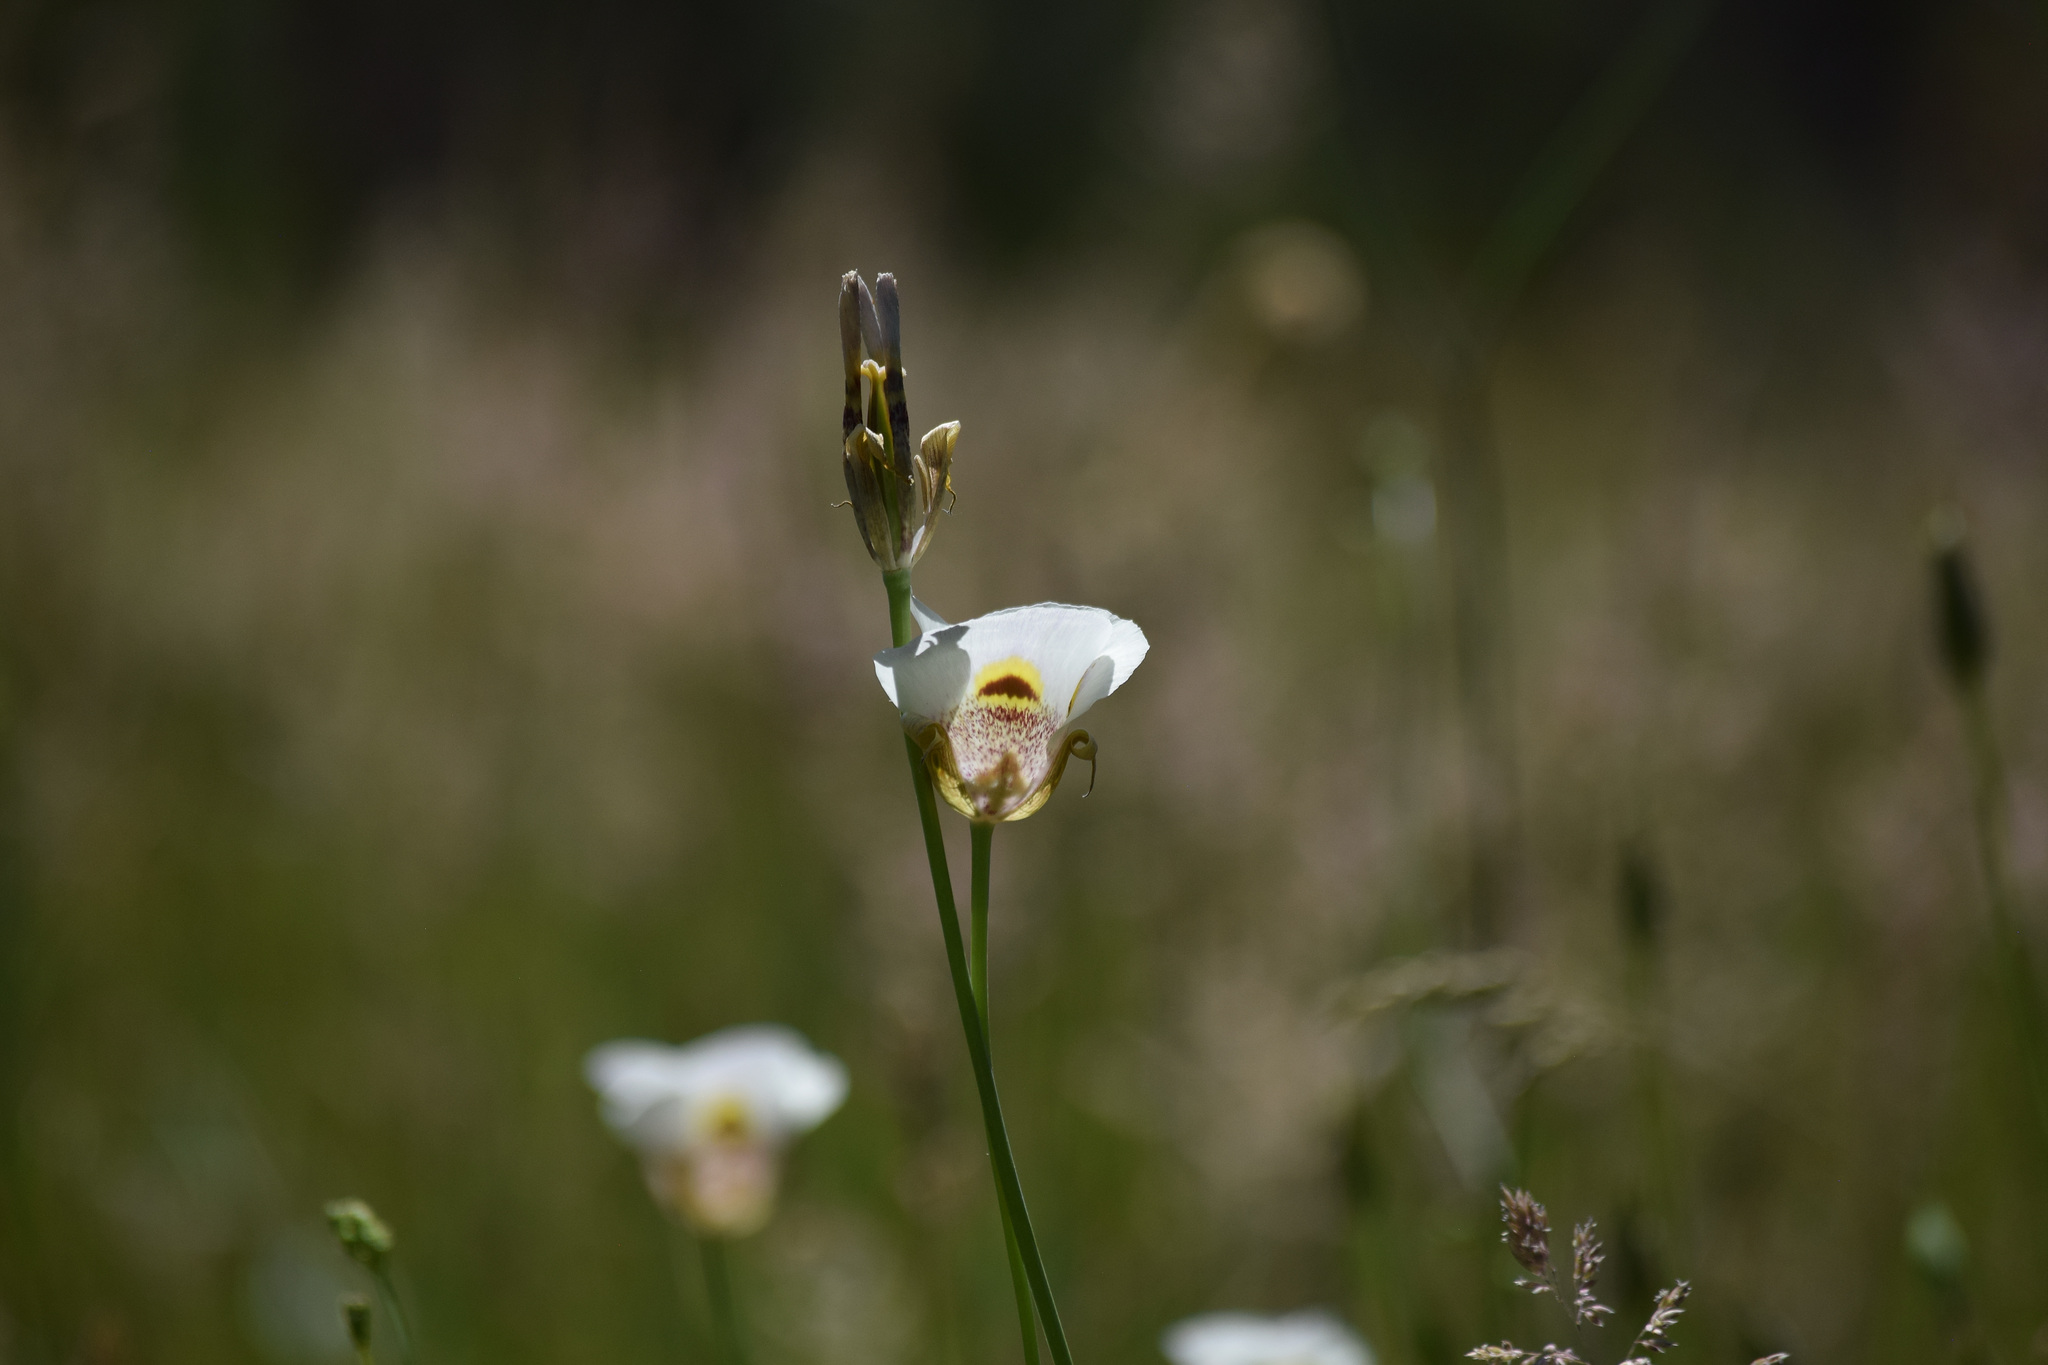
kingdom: Plantae
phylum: Tracheophyta
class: Liliopsida
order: Liliales
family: Liliaceae
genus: Calochortus
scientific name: Calochortus superbus
